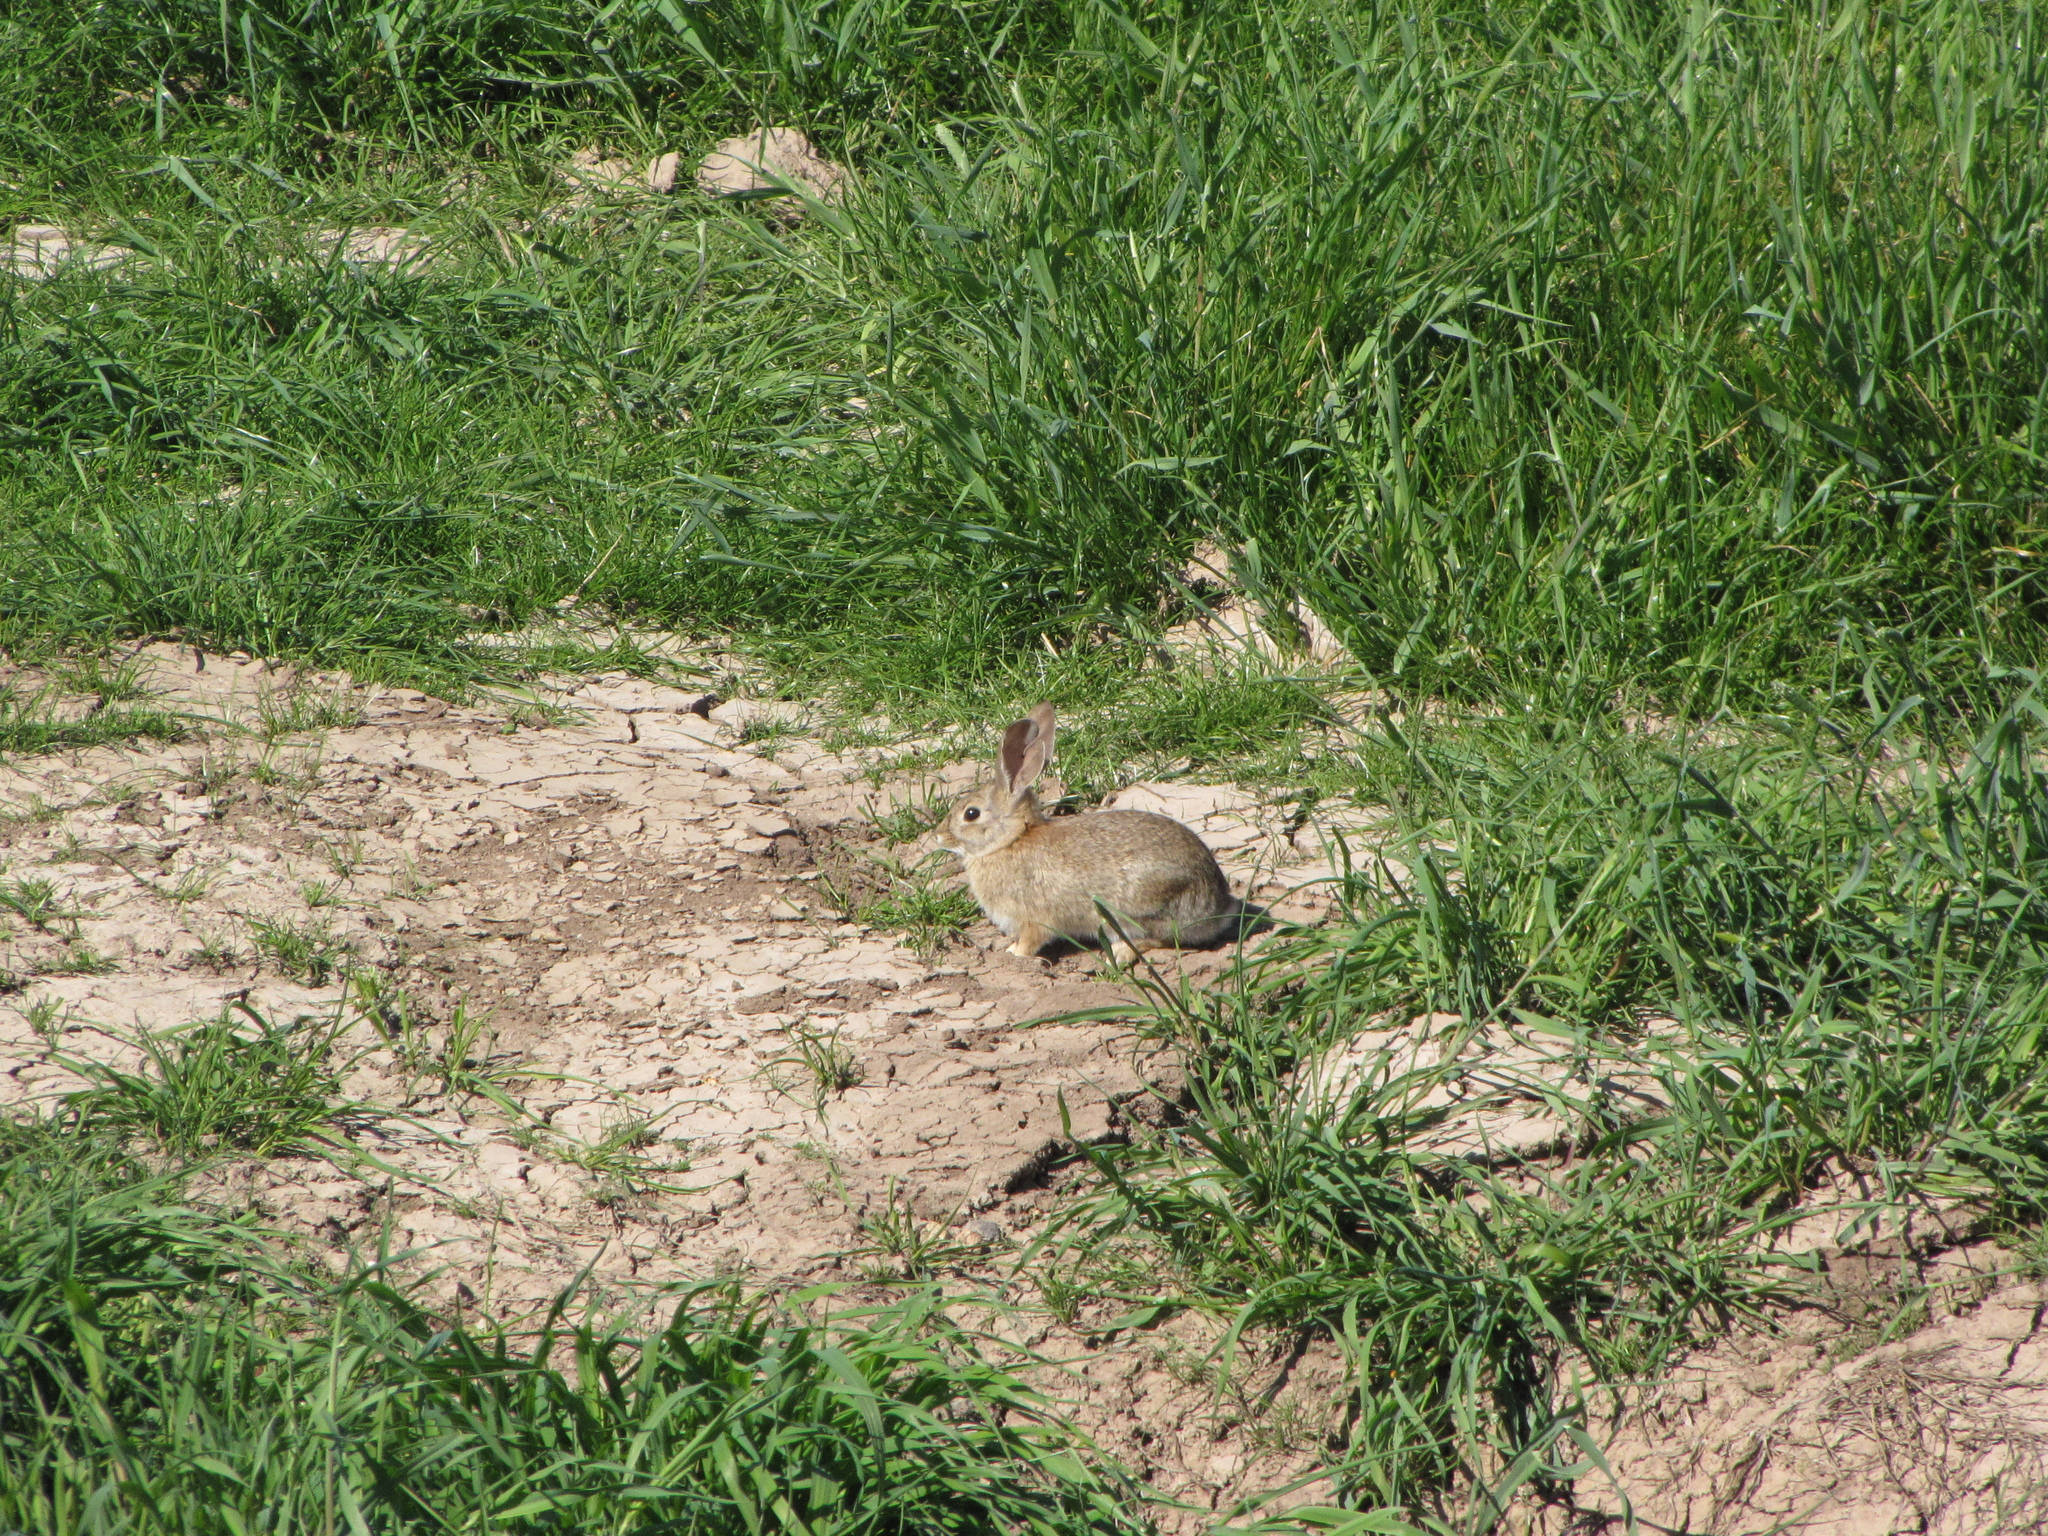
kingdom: Animalia
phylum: Chordata
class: Mammalia
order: Lagomorpha
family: Leporidae
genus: Sylvilagus
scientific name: Sylvilagus audubonii
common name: Desert cottontail
